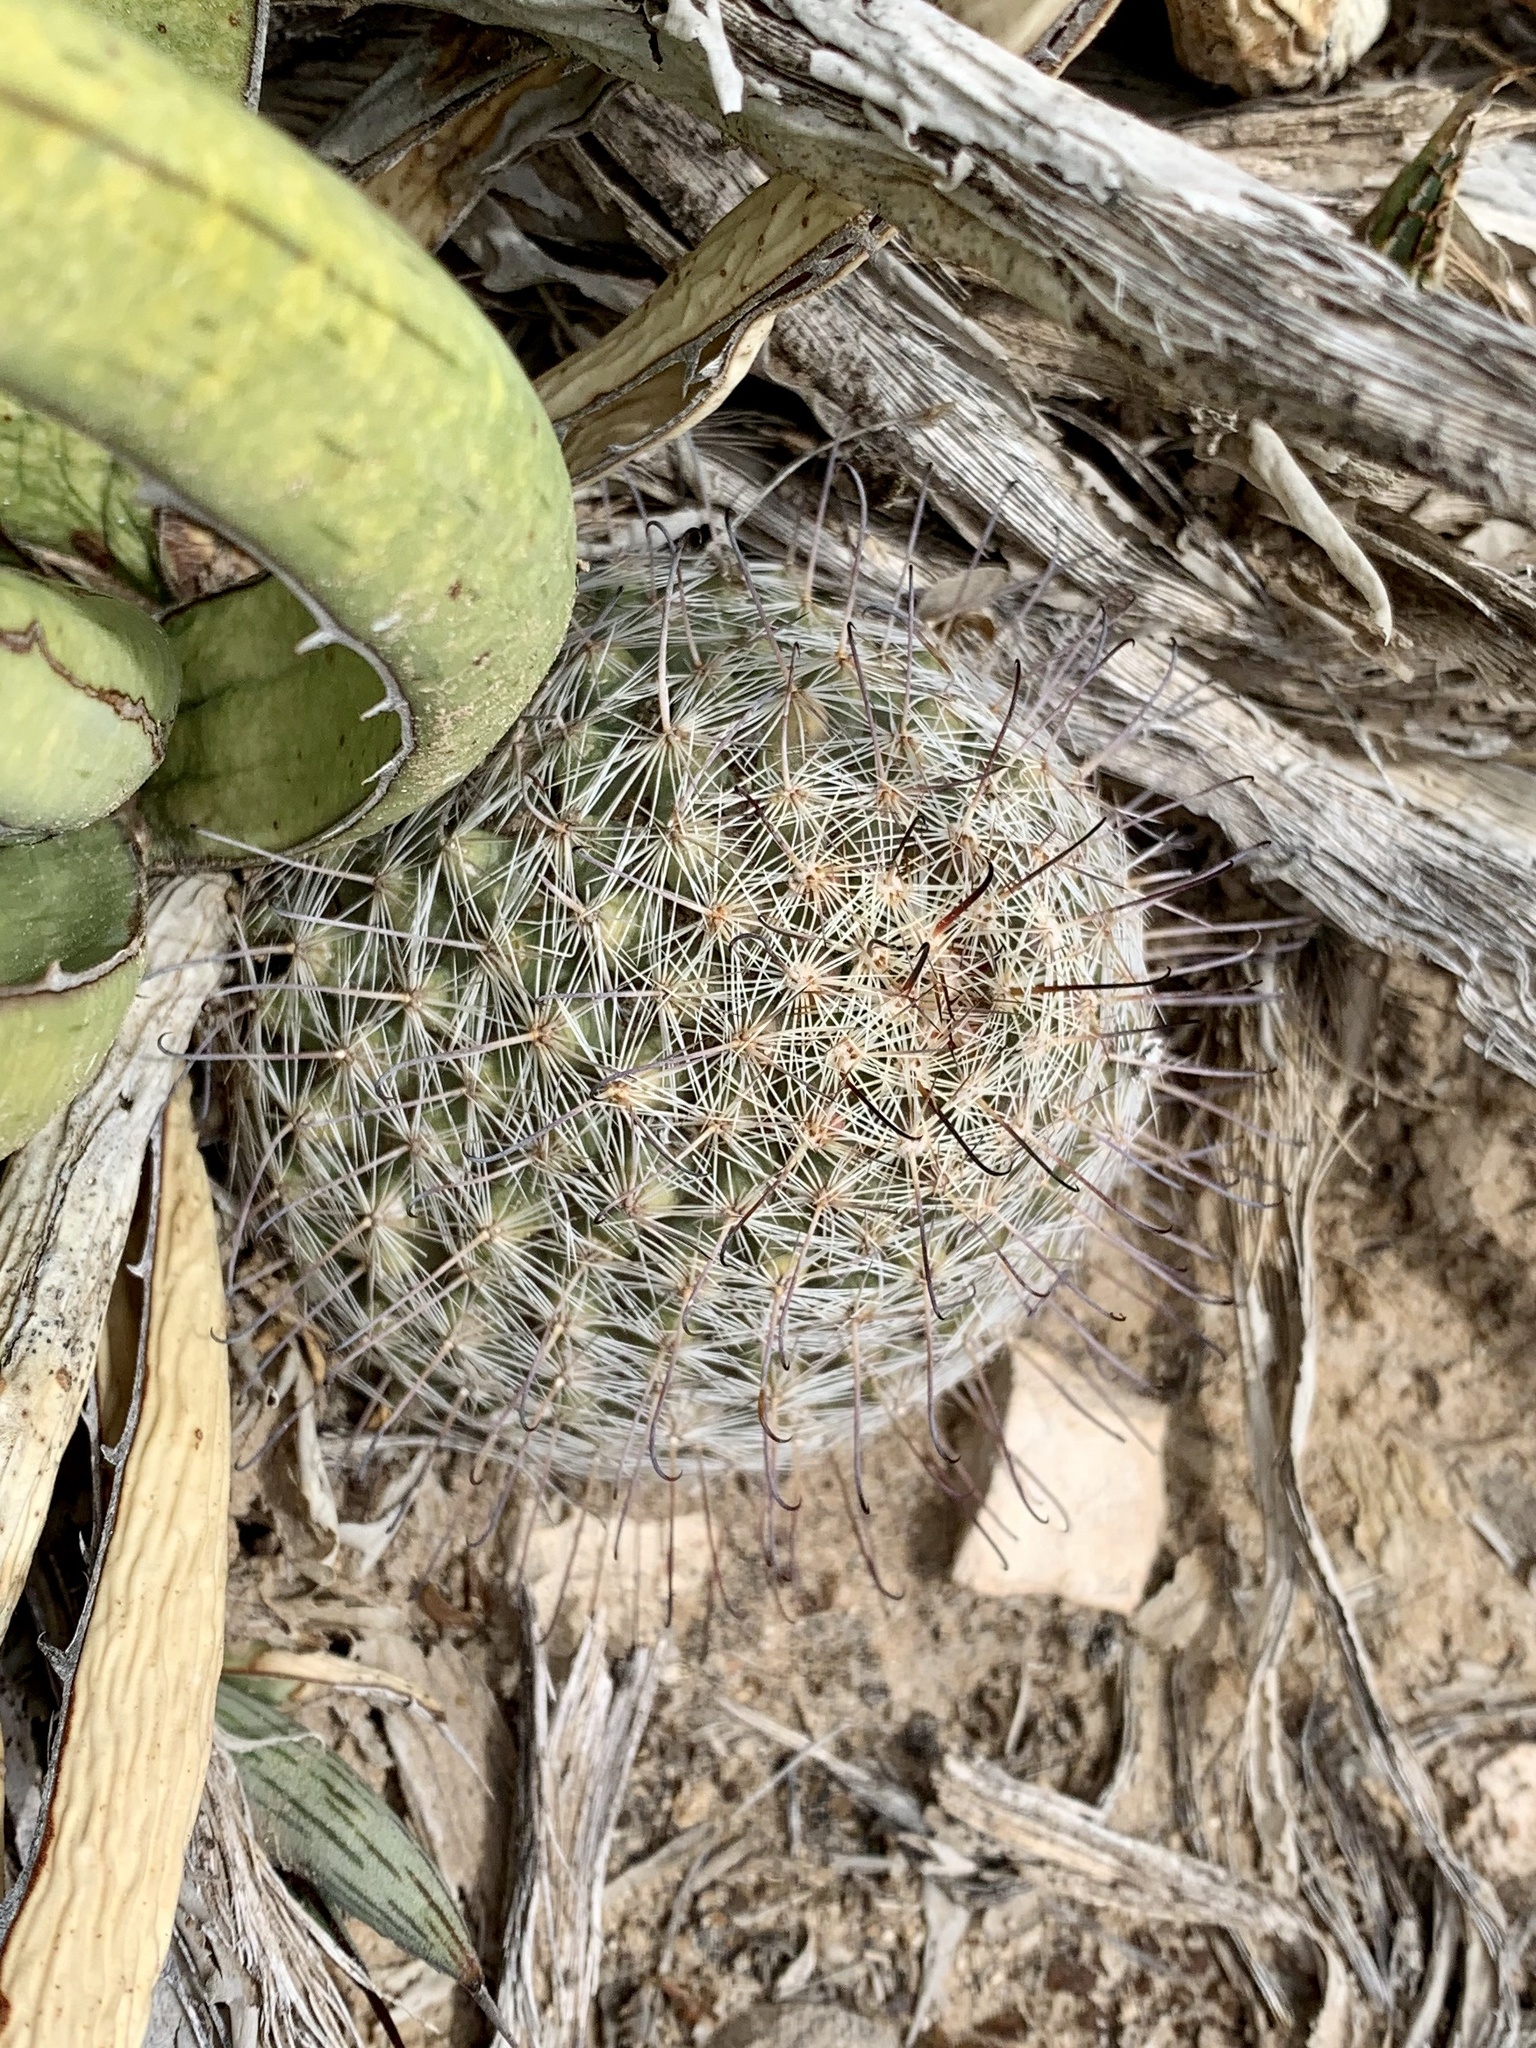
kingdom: Plantae
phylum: Tracheophyta
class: Magnoliopsida
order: Caryophyllales
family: Cactaceae
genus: Cochemiea
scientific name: Cochemiea grahamii
